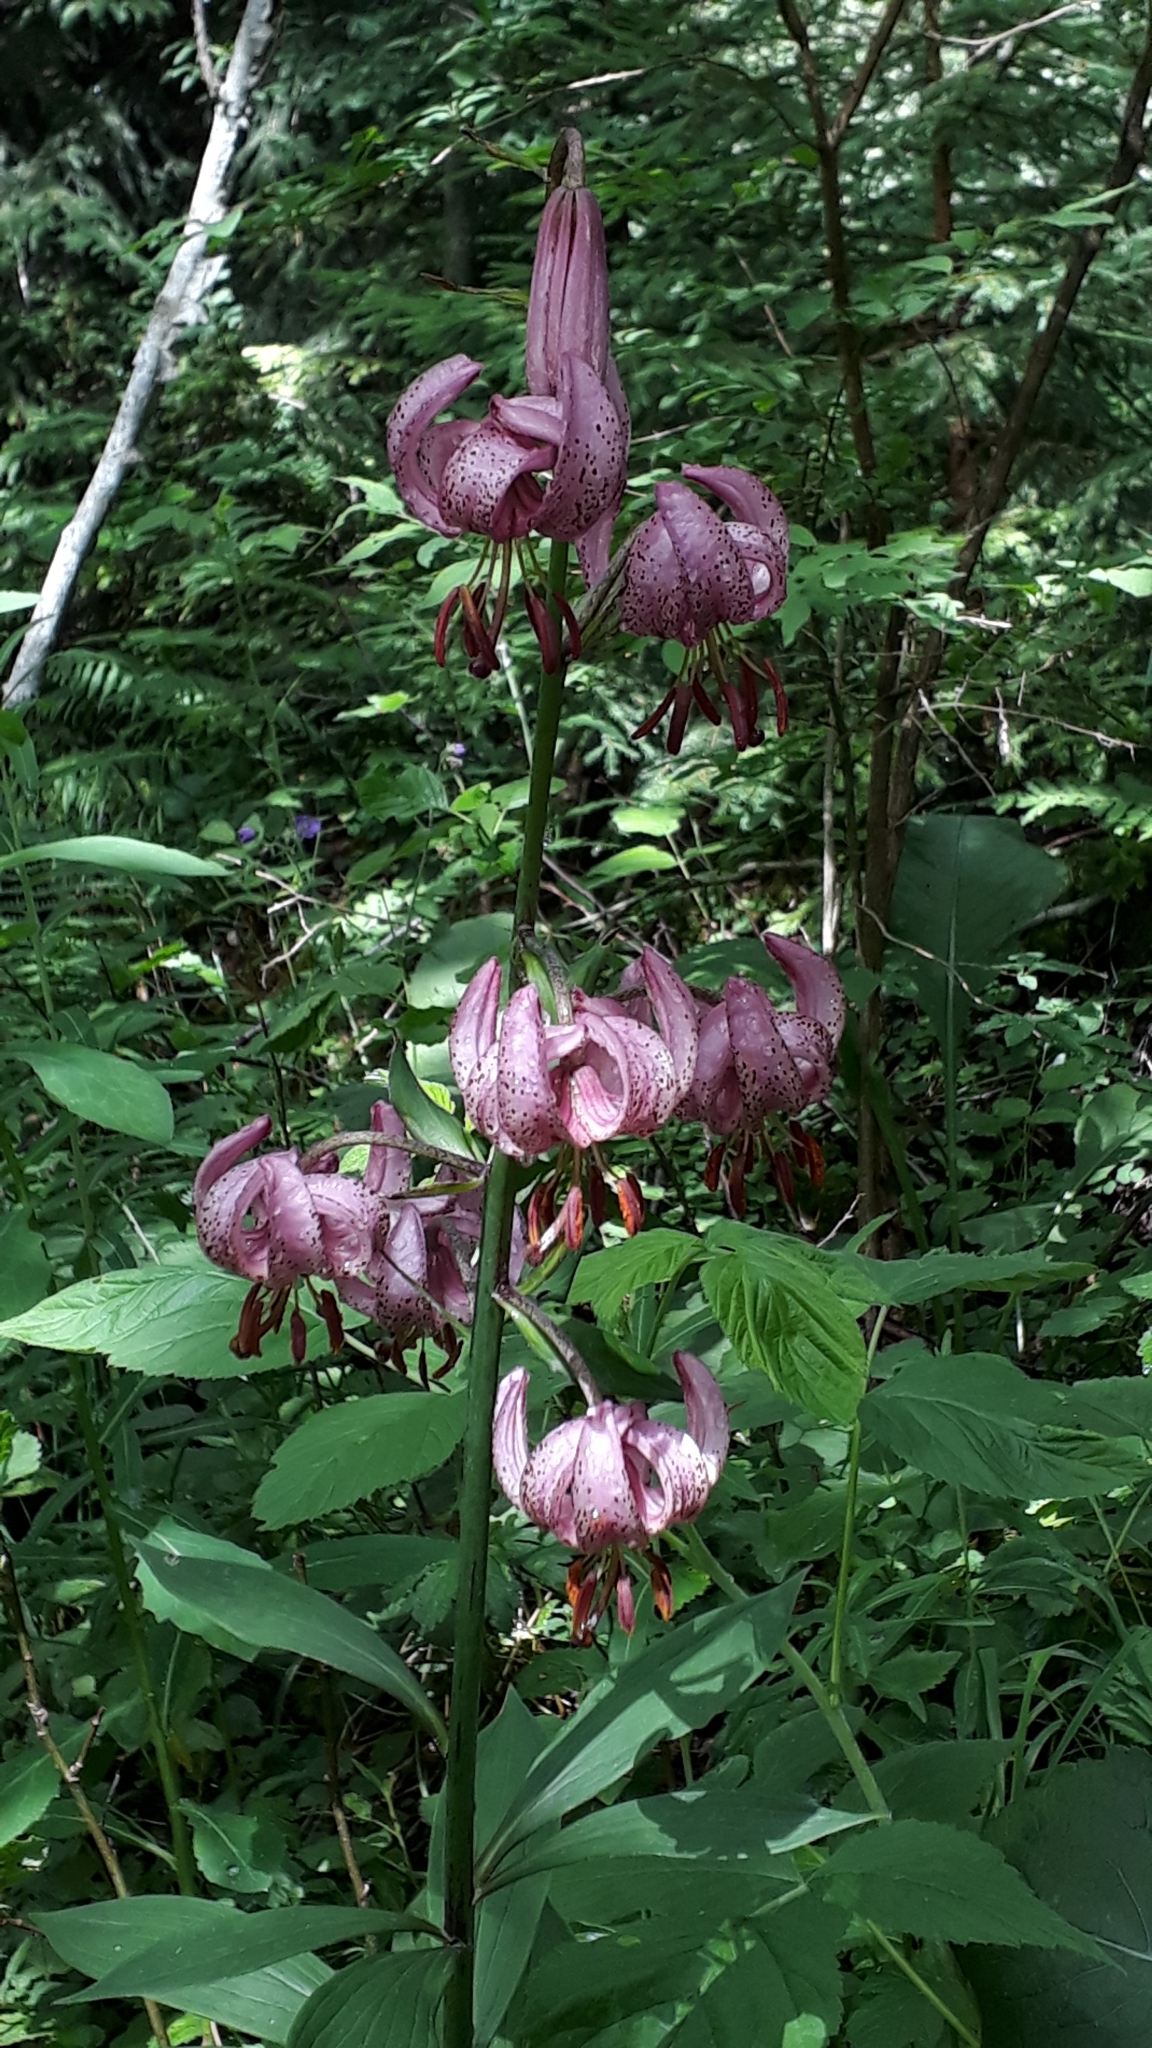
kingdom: Plantae
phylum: Tracheophyta
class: Liliopsida
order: Liliales
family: Liliaceae
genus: Lilium
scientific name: Lilium martagon
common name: Martagon lily
